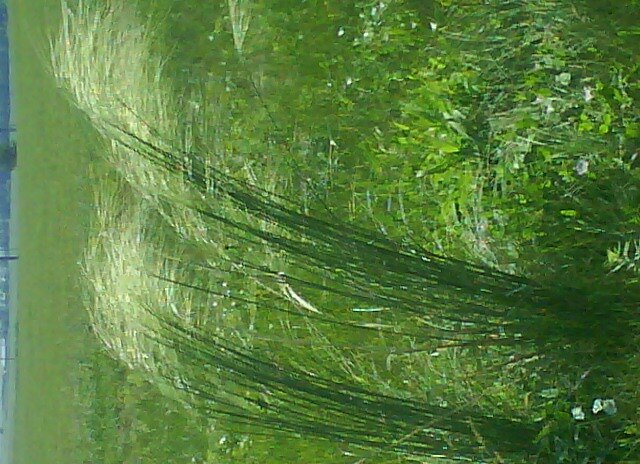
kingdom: Plantae
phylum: Tracheophyta
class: Liliopsida
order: Poales
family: Poaceae
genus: Stipa
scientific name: Stipa capillata
